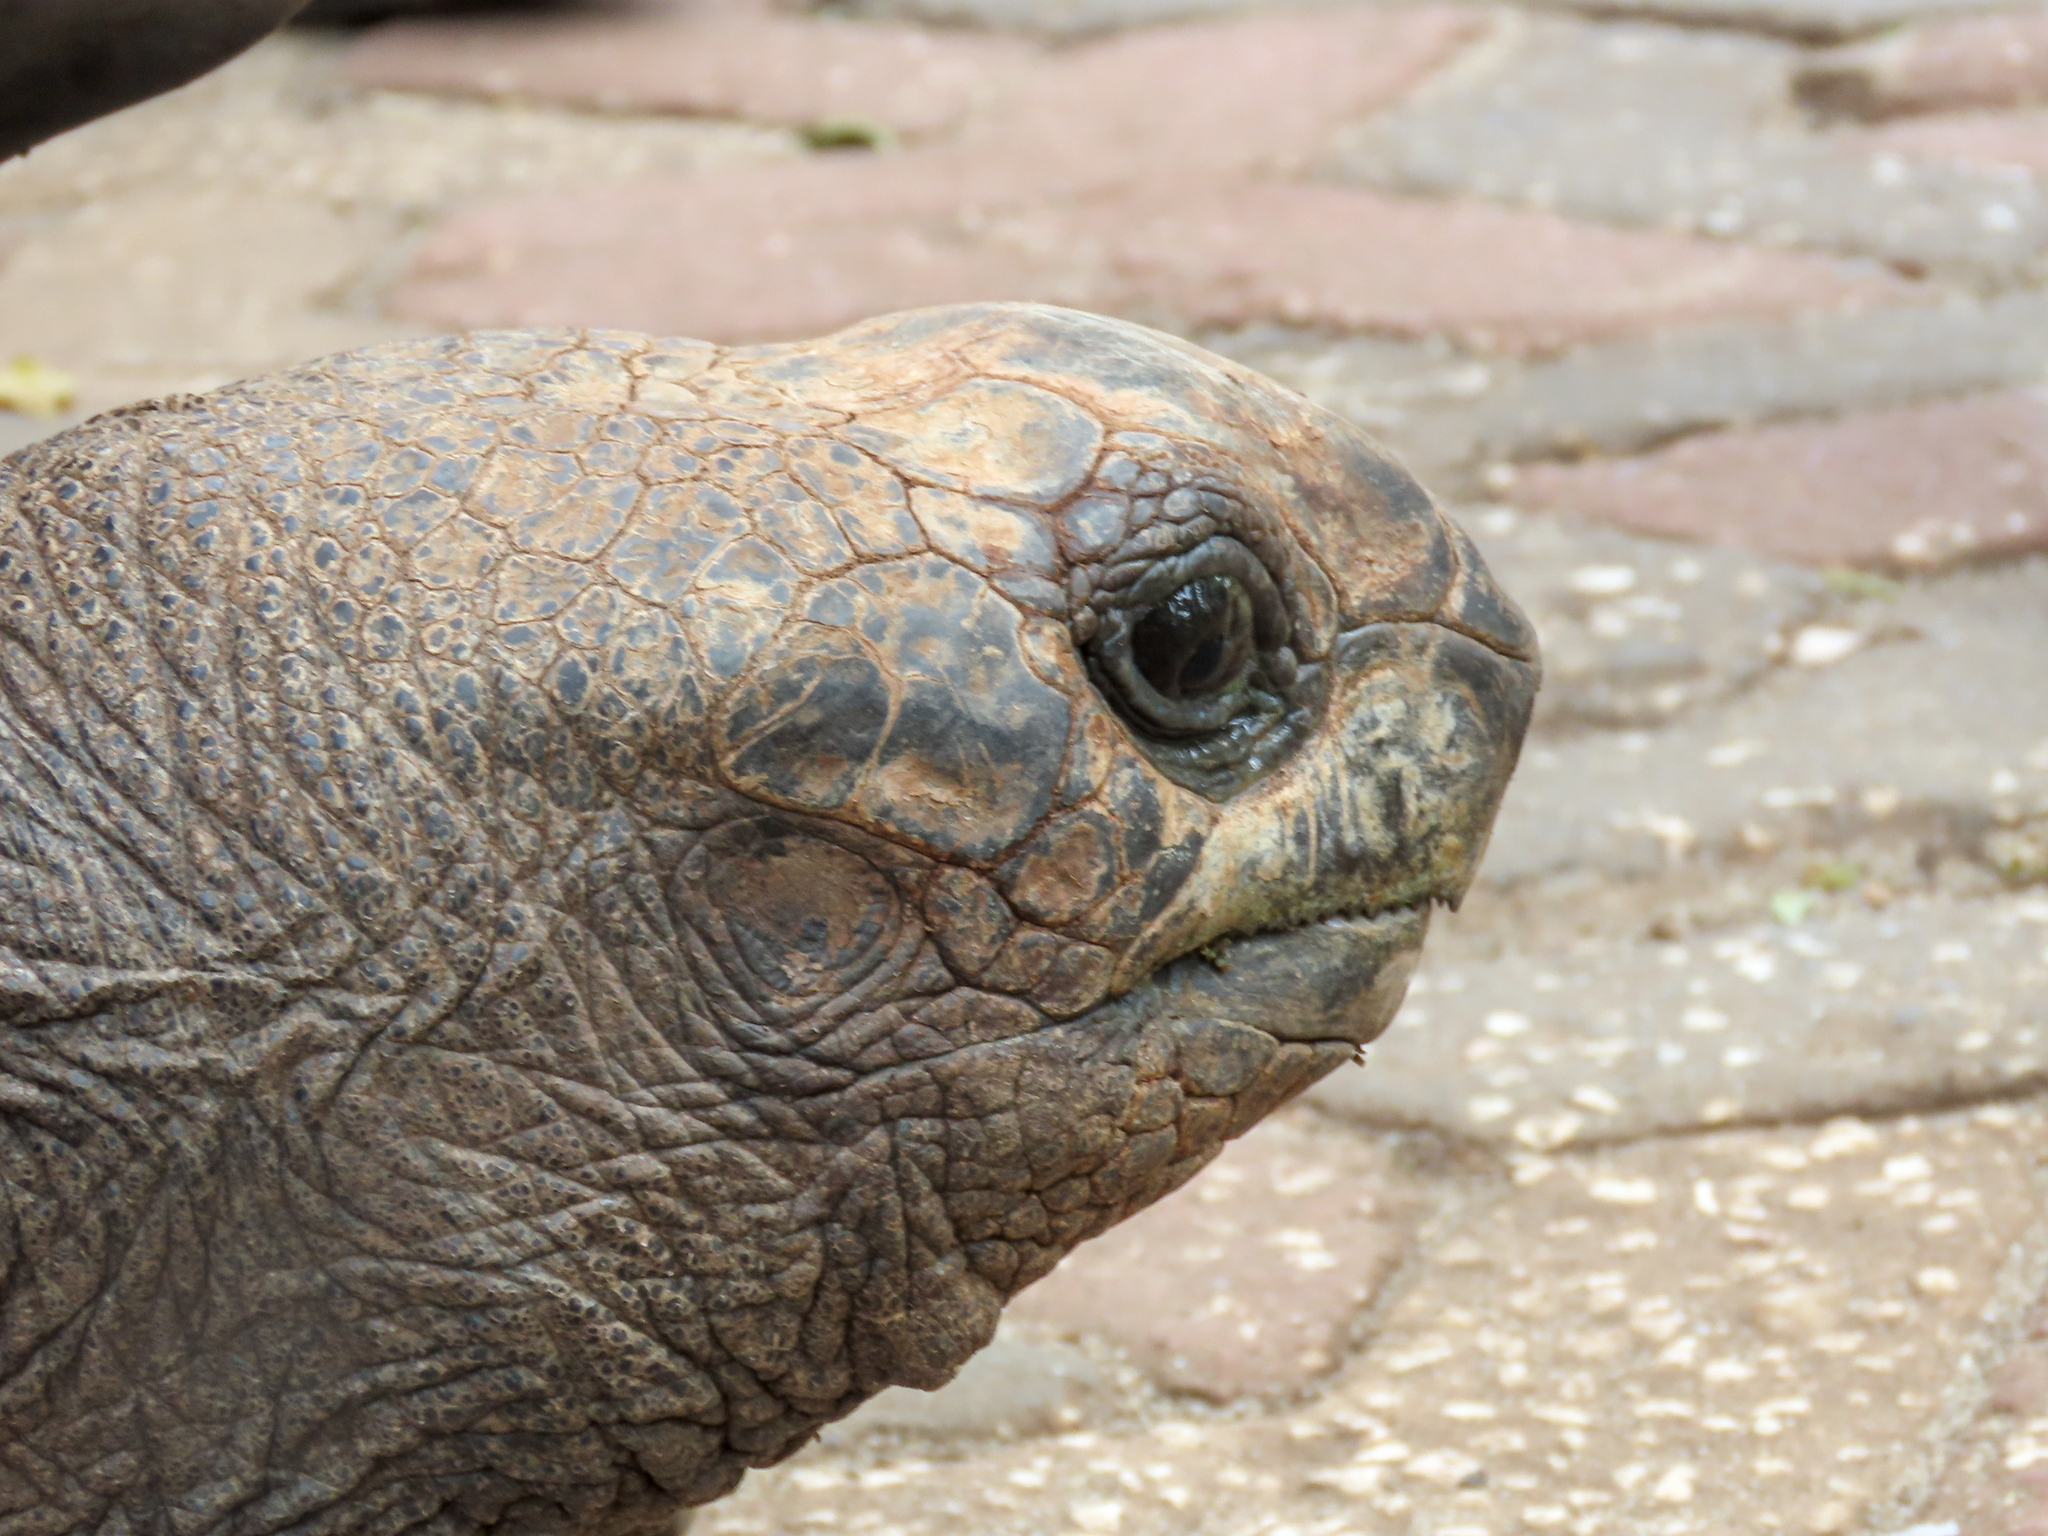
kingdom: Animalia
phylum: Chordata
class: Testudines
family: Testudinidae
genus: Aldabrachelys
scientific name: Aldabrachelys gigantea
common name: Aldabra giant tortoise
